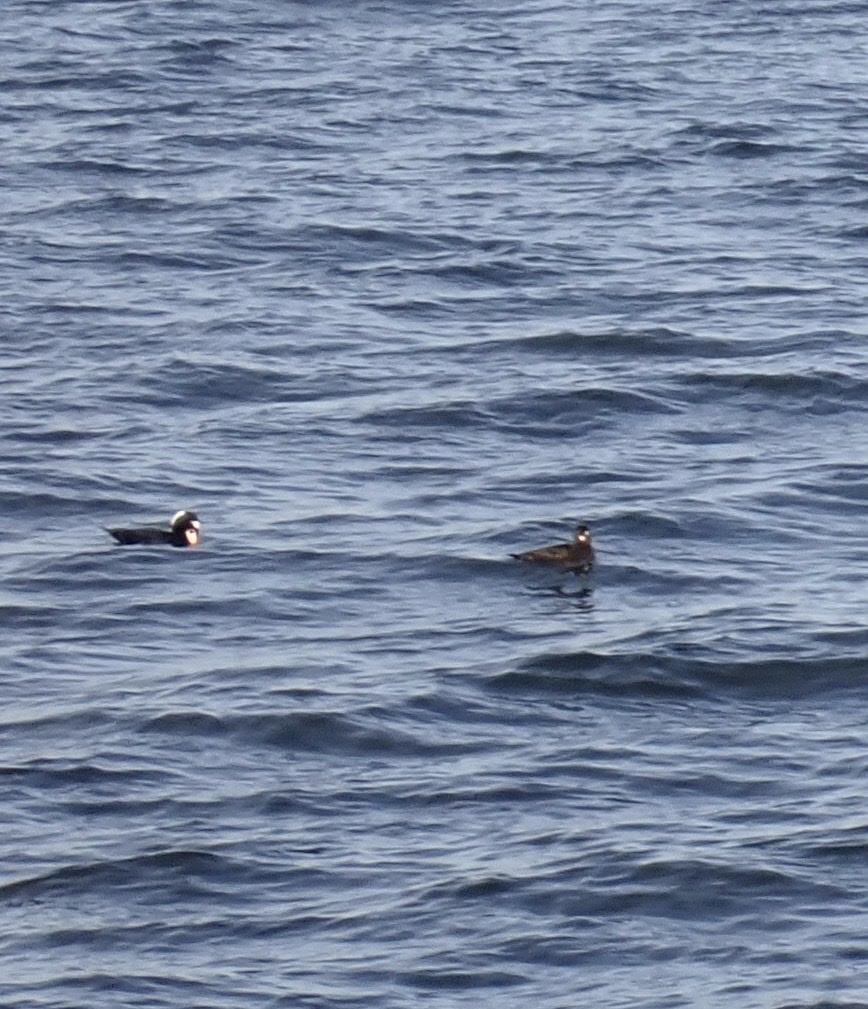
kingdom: Animalia
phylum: Chordata
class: Aves
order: Anseriformes
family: Anatidae
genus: Melanitta
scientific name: Melanitta perspicillata
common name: Surf scoter
